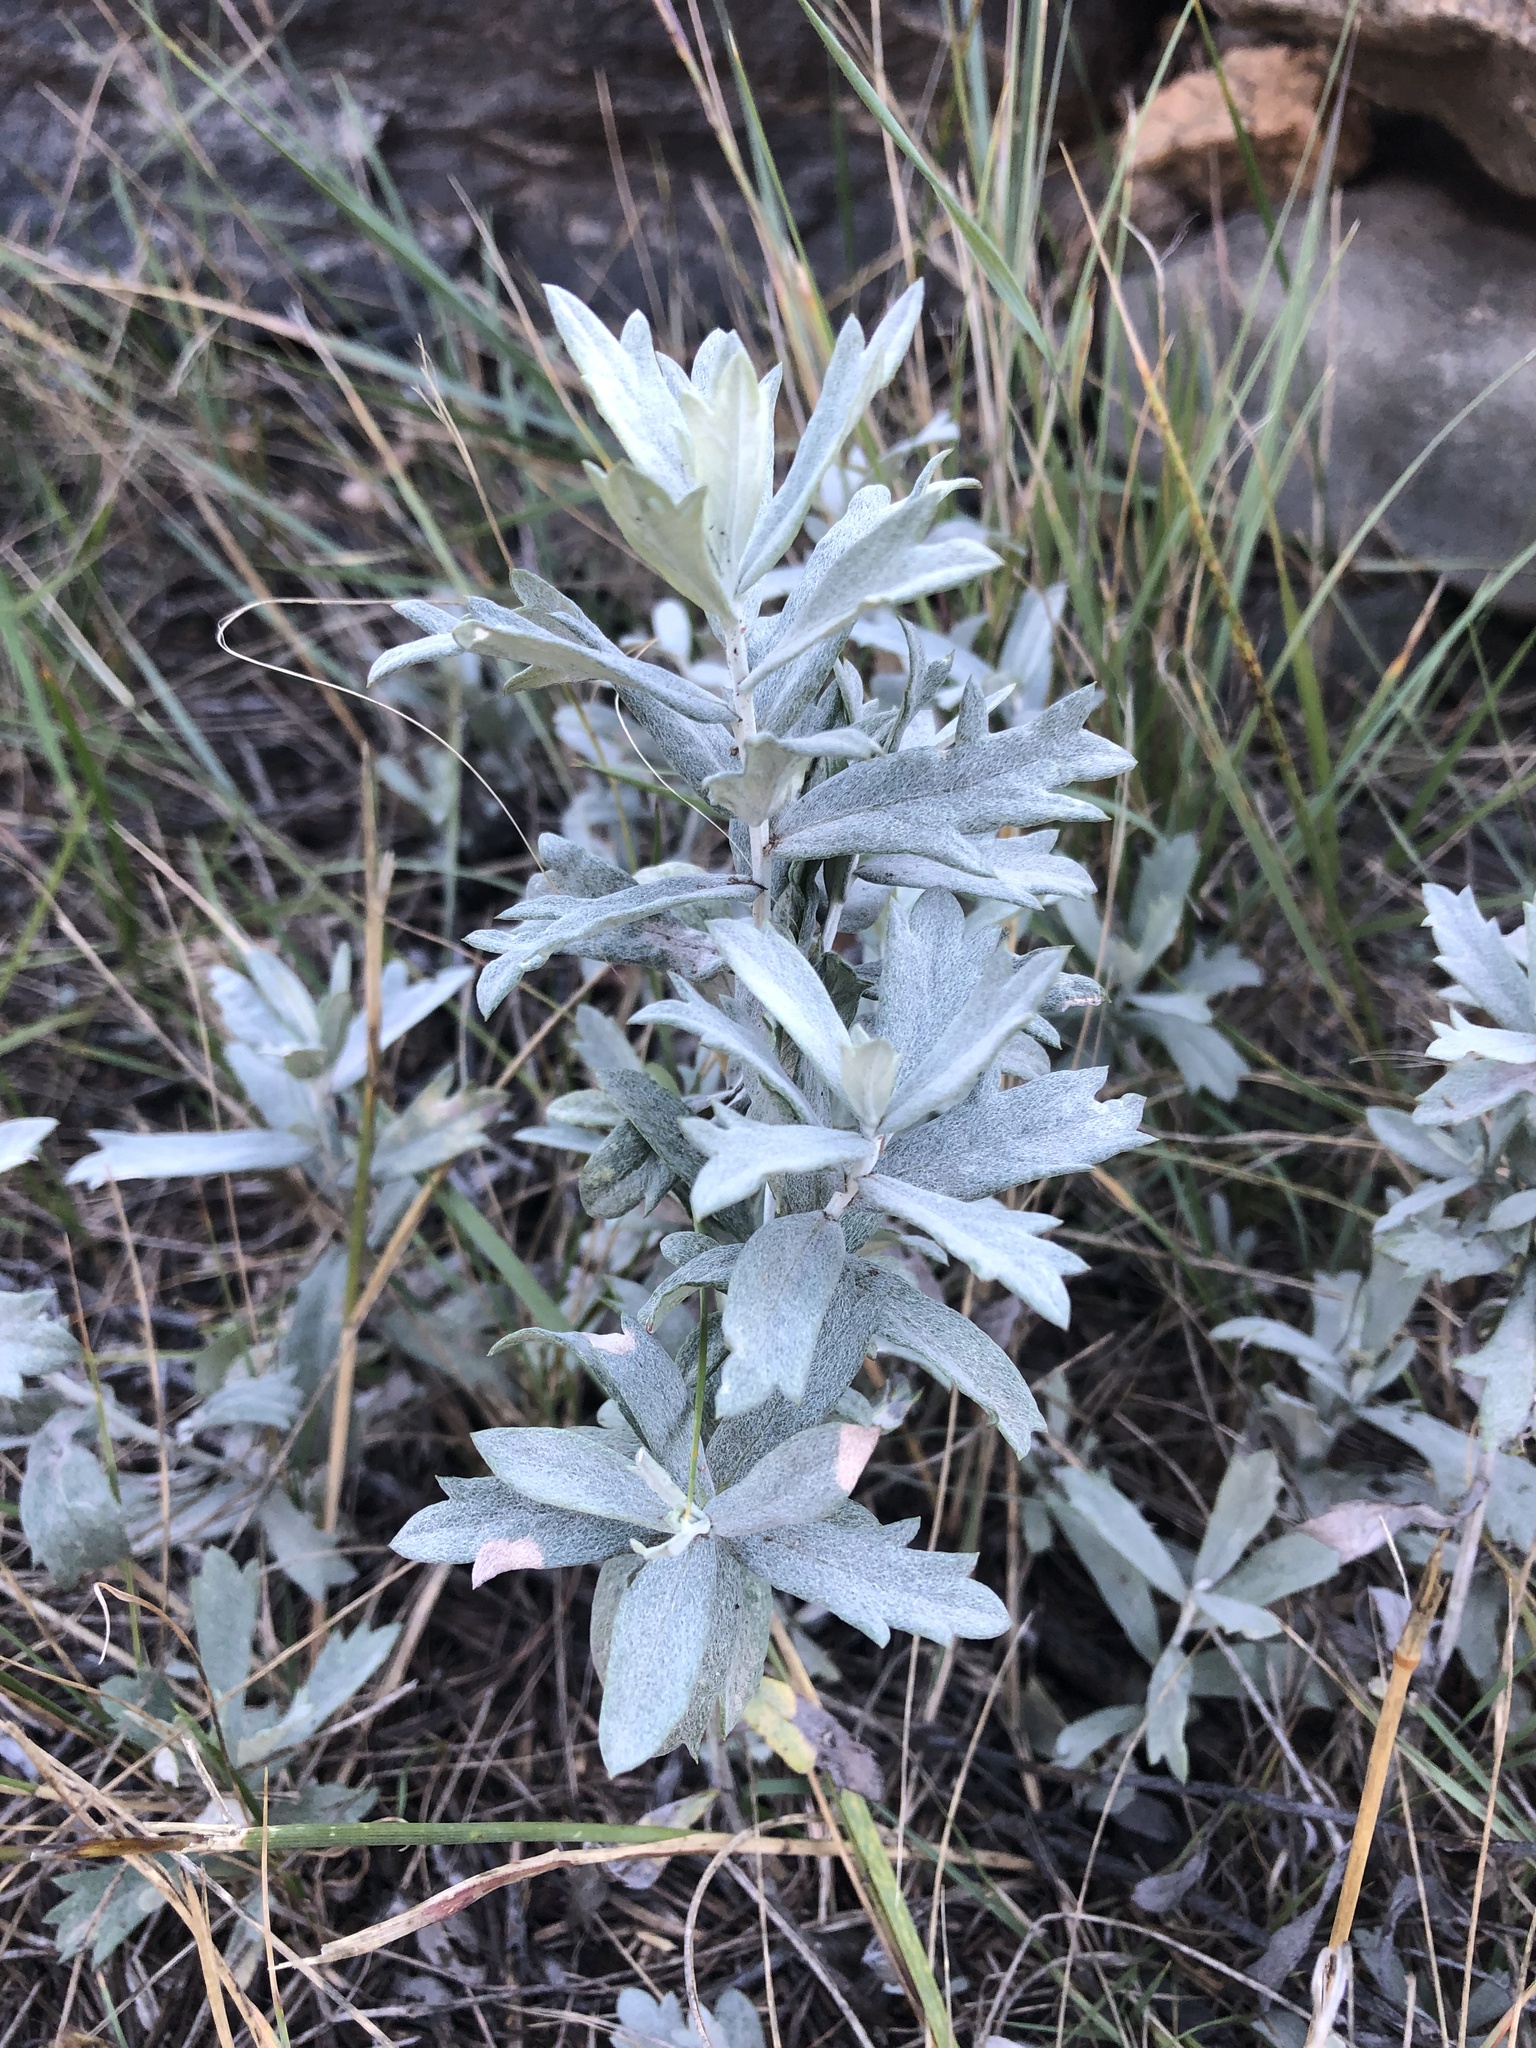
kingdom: Plantae
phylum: Tracheophyta
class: Magnoliopsida
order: Asterales
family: Asteraceae
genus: Artemisia
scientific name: Artemisia ludoviciana
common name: Western mugwort
